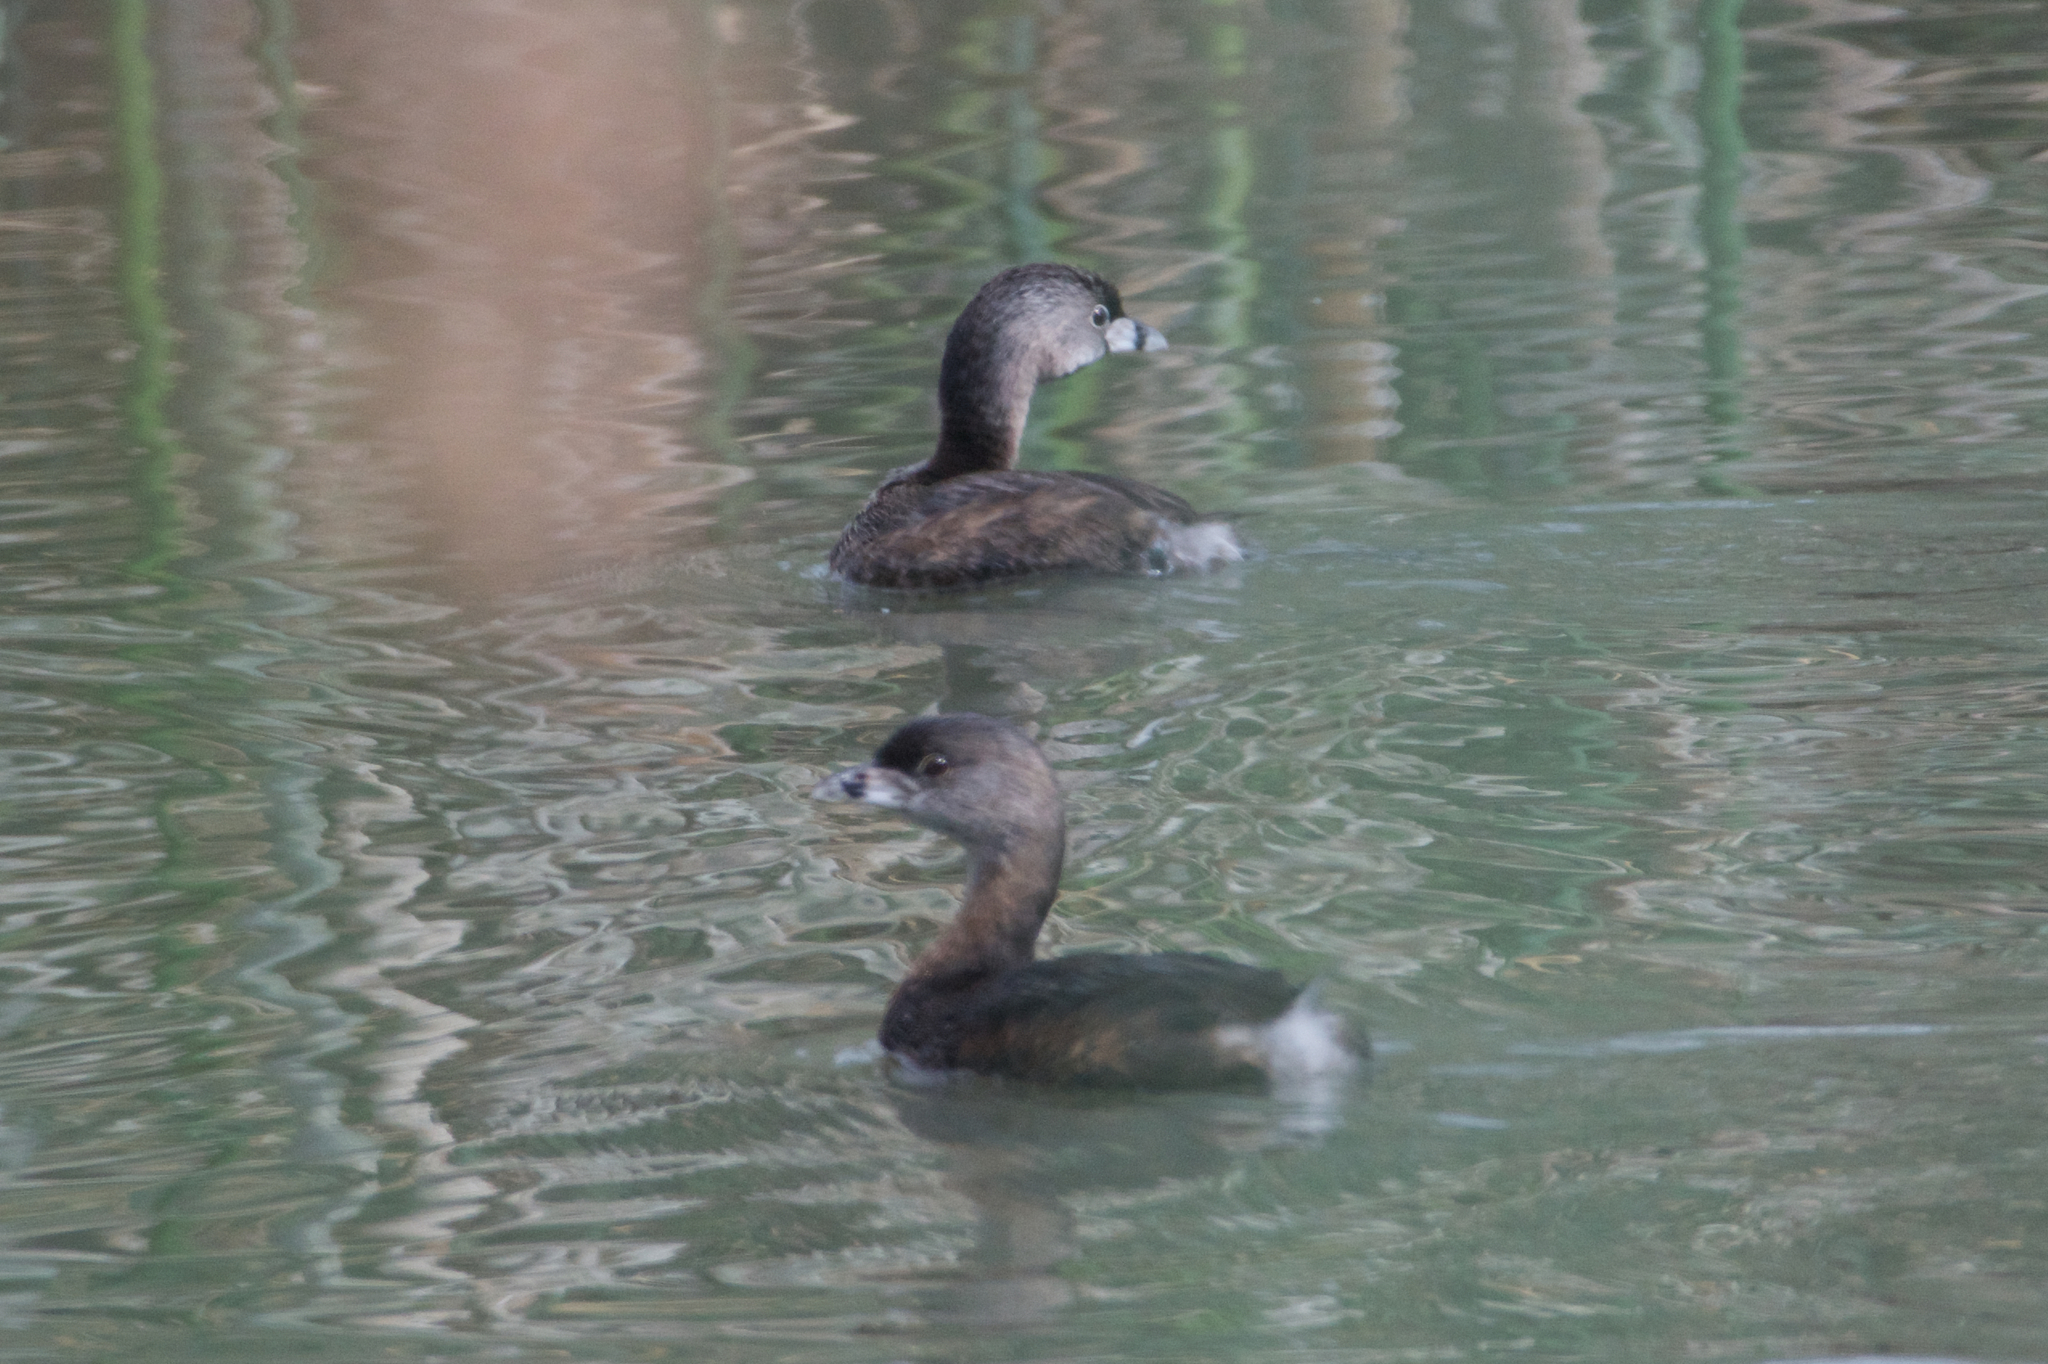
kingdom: Animalia
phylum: Chordata
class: Aves
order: Podicipediformes
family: Podicipedidae
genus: Podilymbus
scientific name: Podilymbus podiceps
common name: Pied-billed grebe
